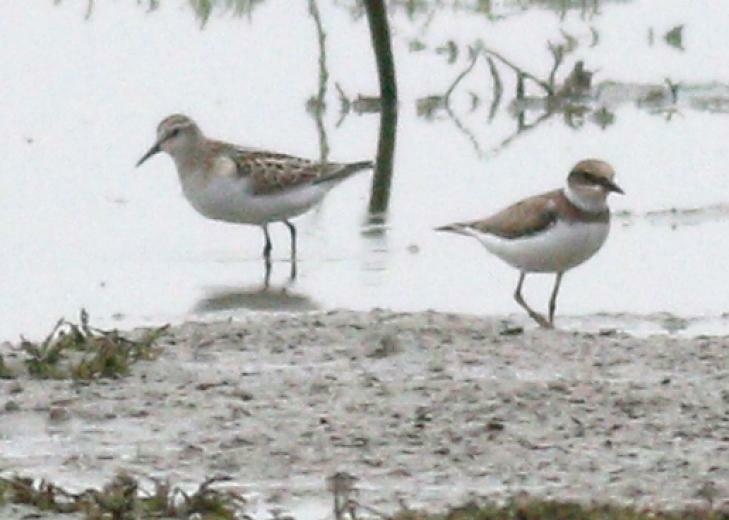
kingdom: Animalia
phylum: Chordata
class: Aves
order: Charadriiformes
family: Scolopacidae
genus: Calidris
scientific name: Calidris minuta
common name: Little stint
